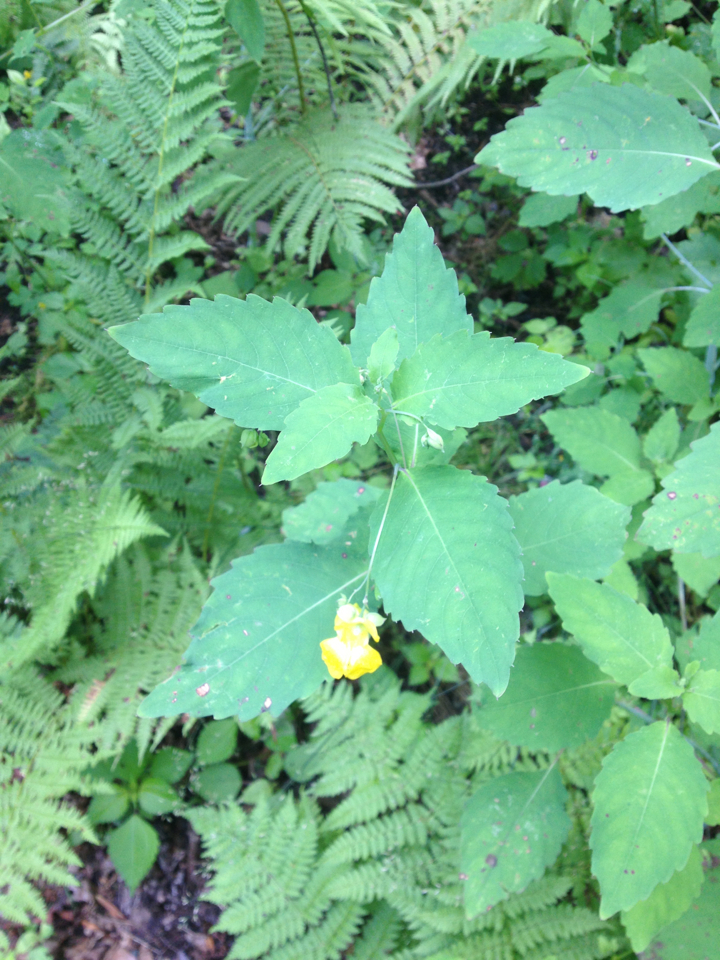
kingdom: Plantae
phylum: Tracheophyta
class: Magnoliopsida
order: Ericales
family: Balsaminaceae
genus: Impatiens
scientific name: Impatiens pallida
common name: Pale snapweed
